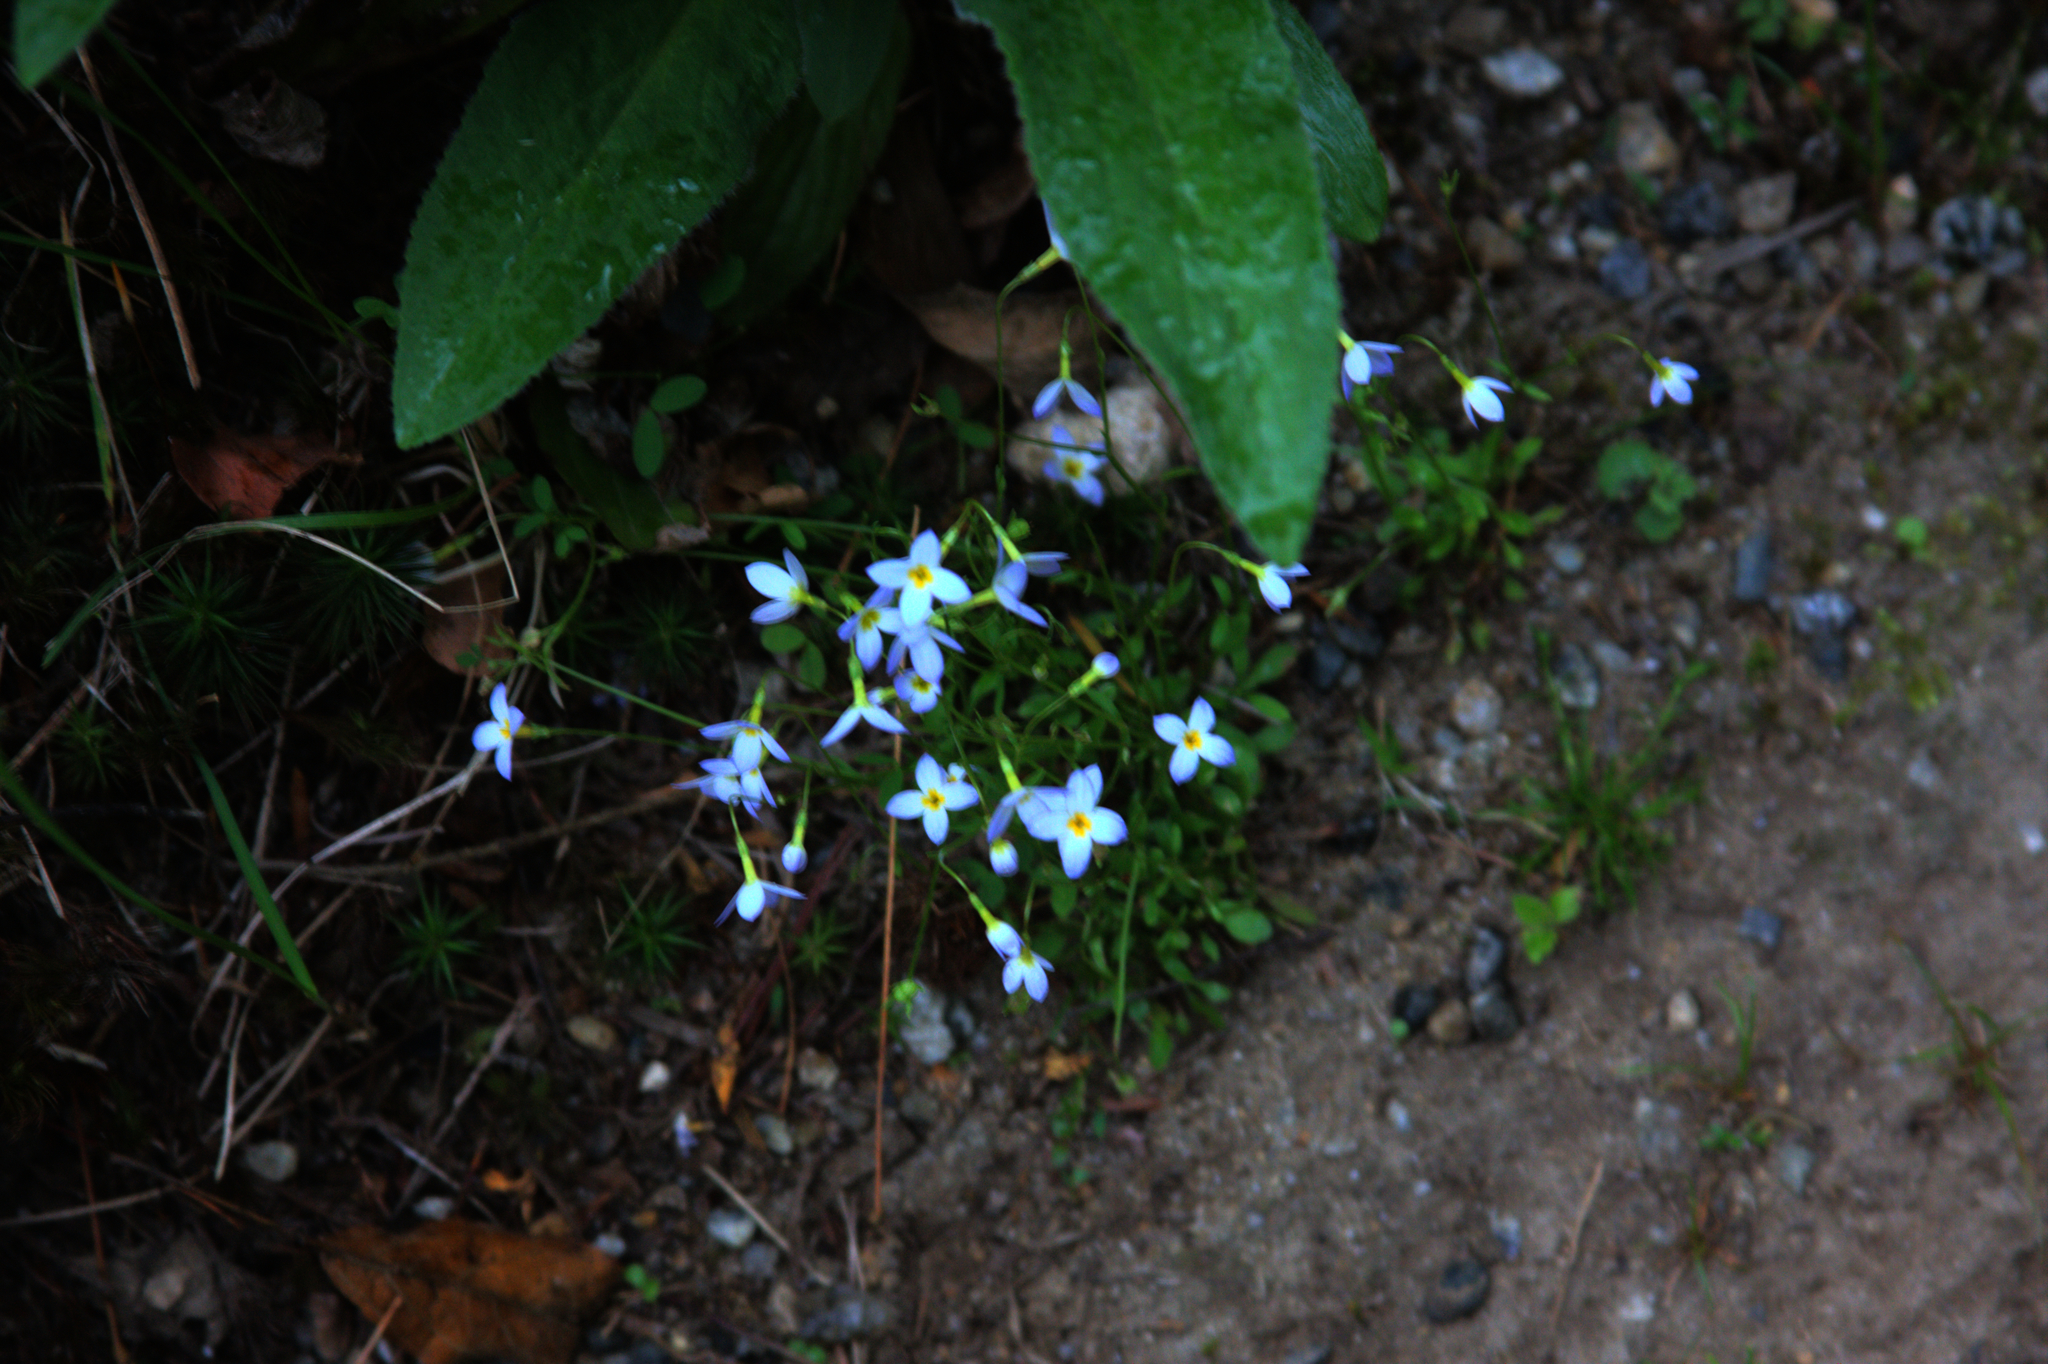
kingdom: Plantae
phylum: Tracheophyta
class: Magnoliopsida
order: Gentianales
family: Rubiaceae
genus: Houstonia
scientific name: Houstonia caerulea
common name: Bluets
